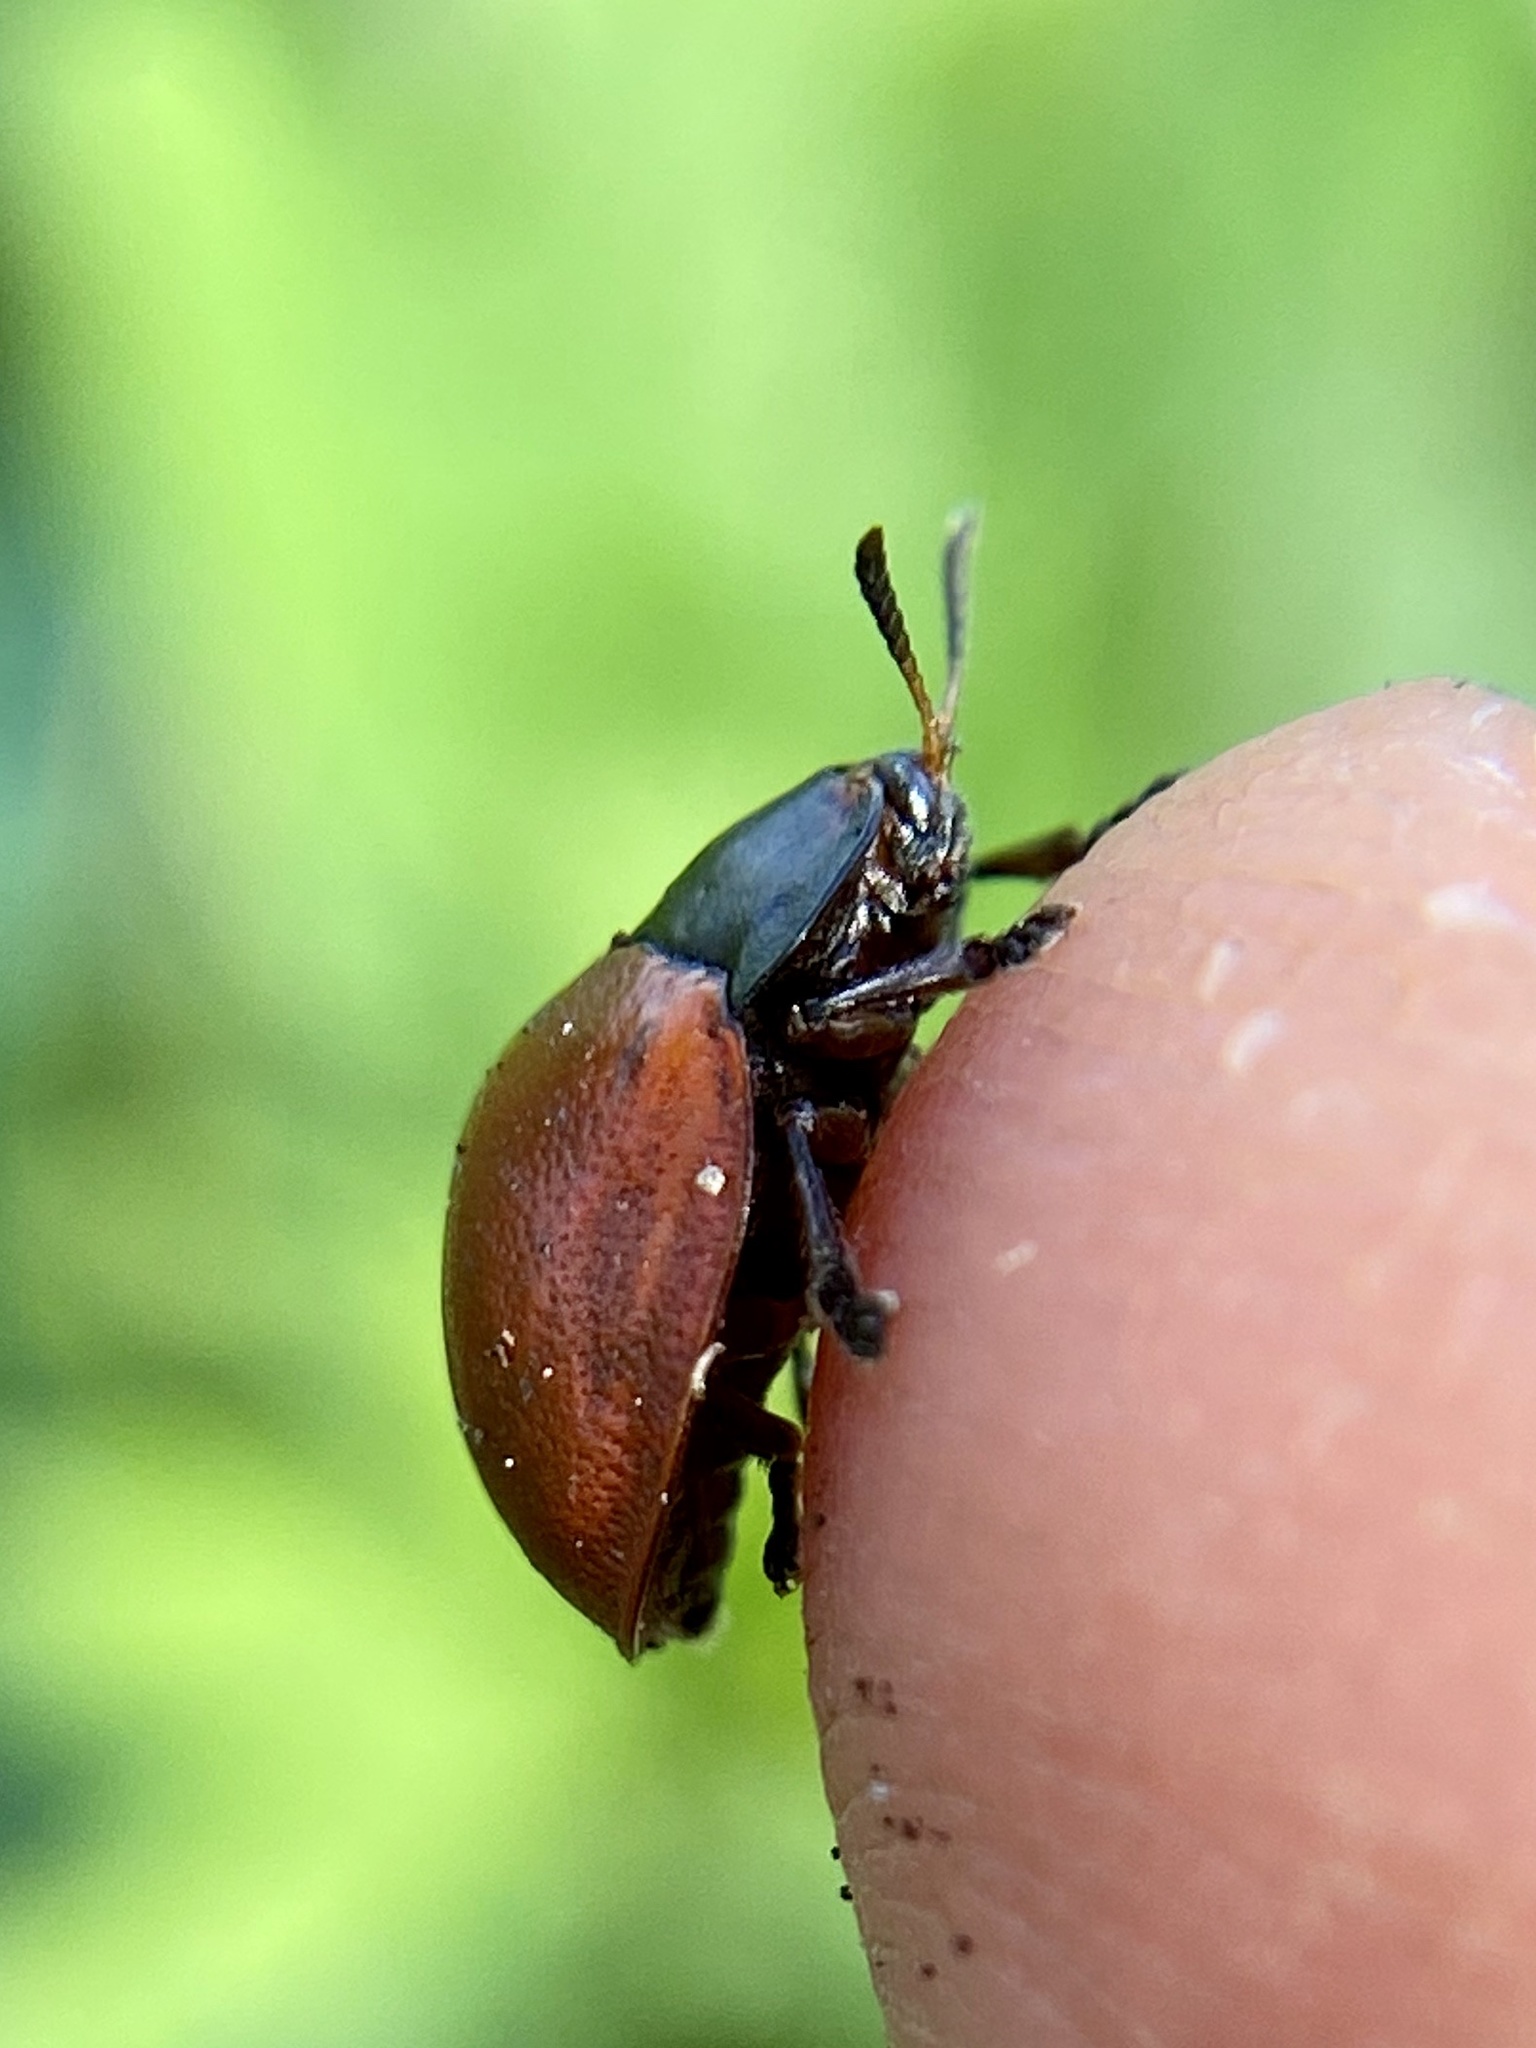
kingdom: Animalia
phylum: Arthropoda
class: Insecta
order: Coleoptera
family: Chrysomelidae
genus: Chelymorpha
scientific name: Chelymorpha cribraria
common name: Tortoise beetle
